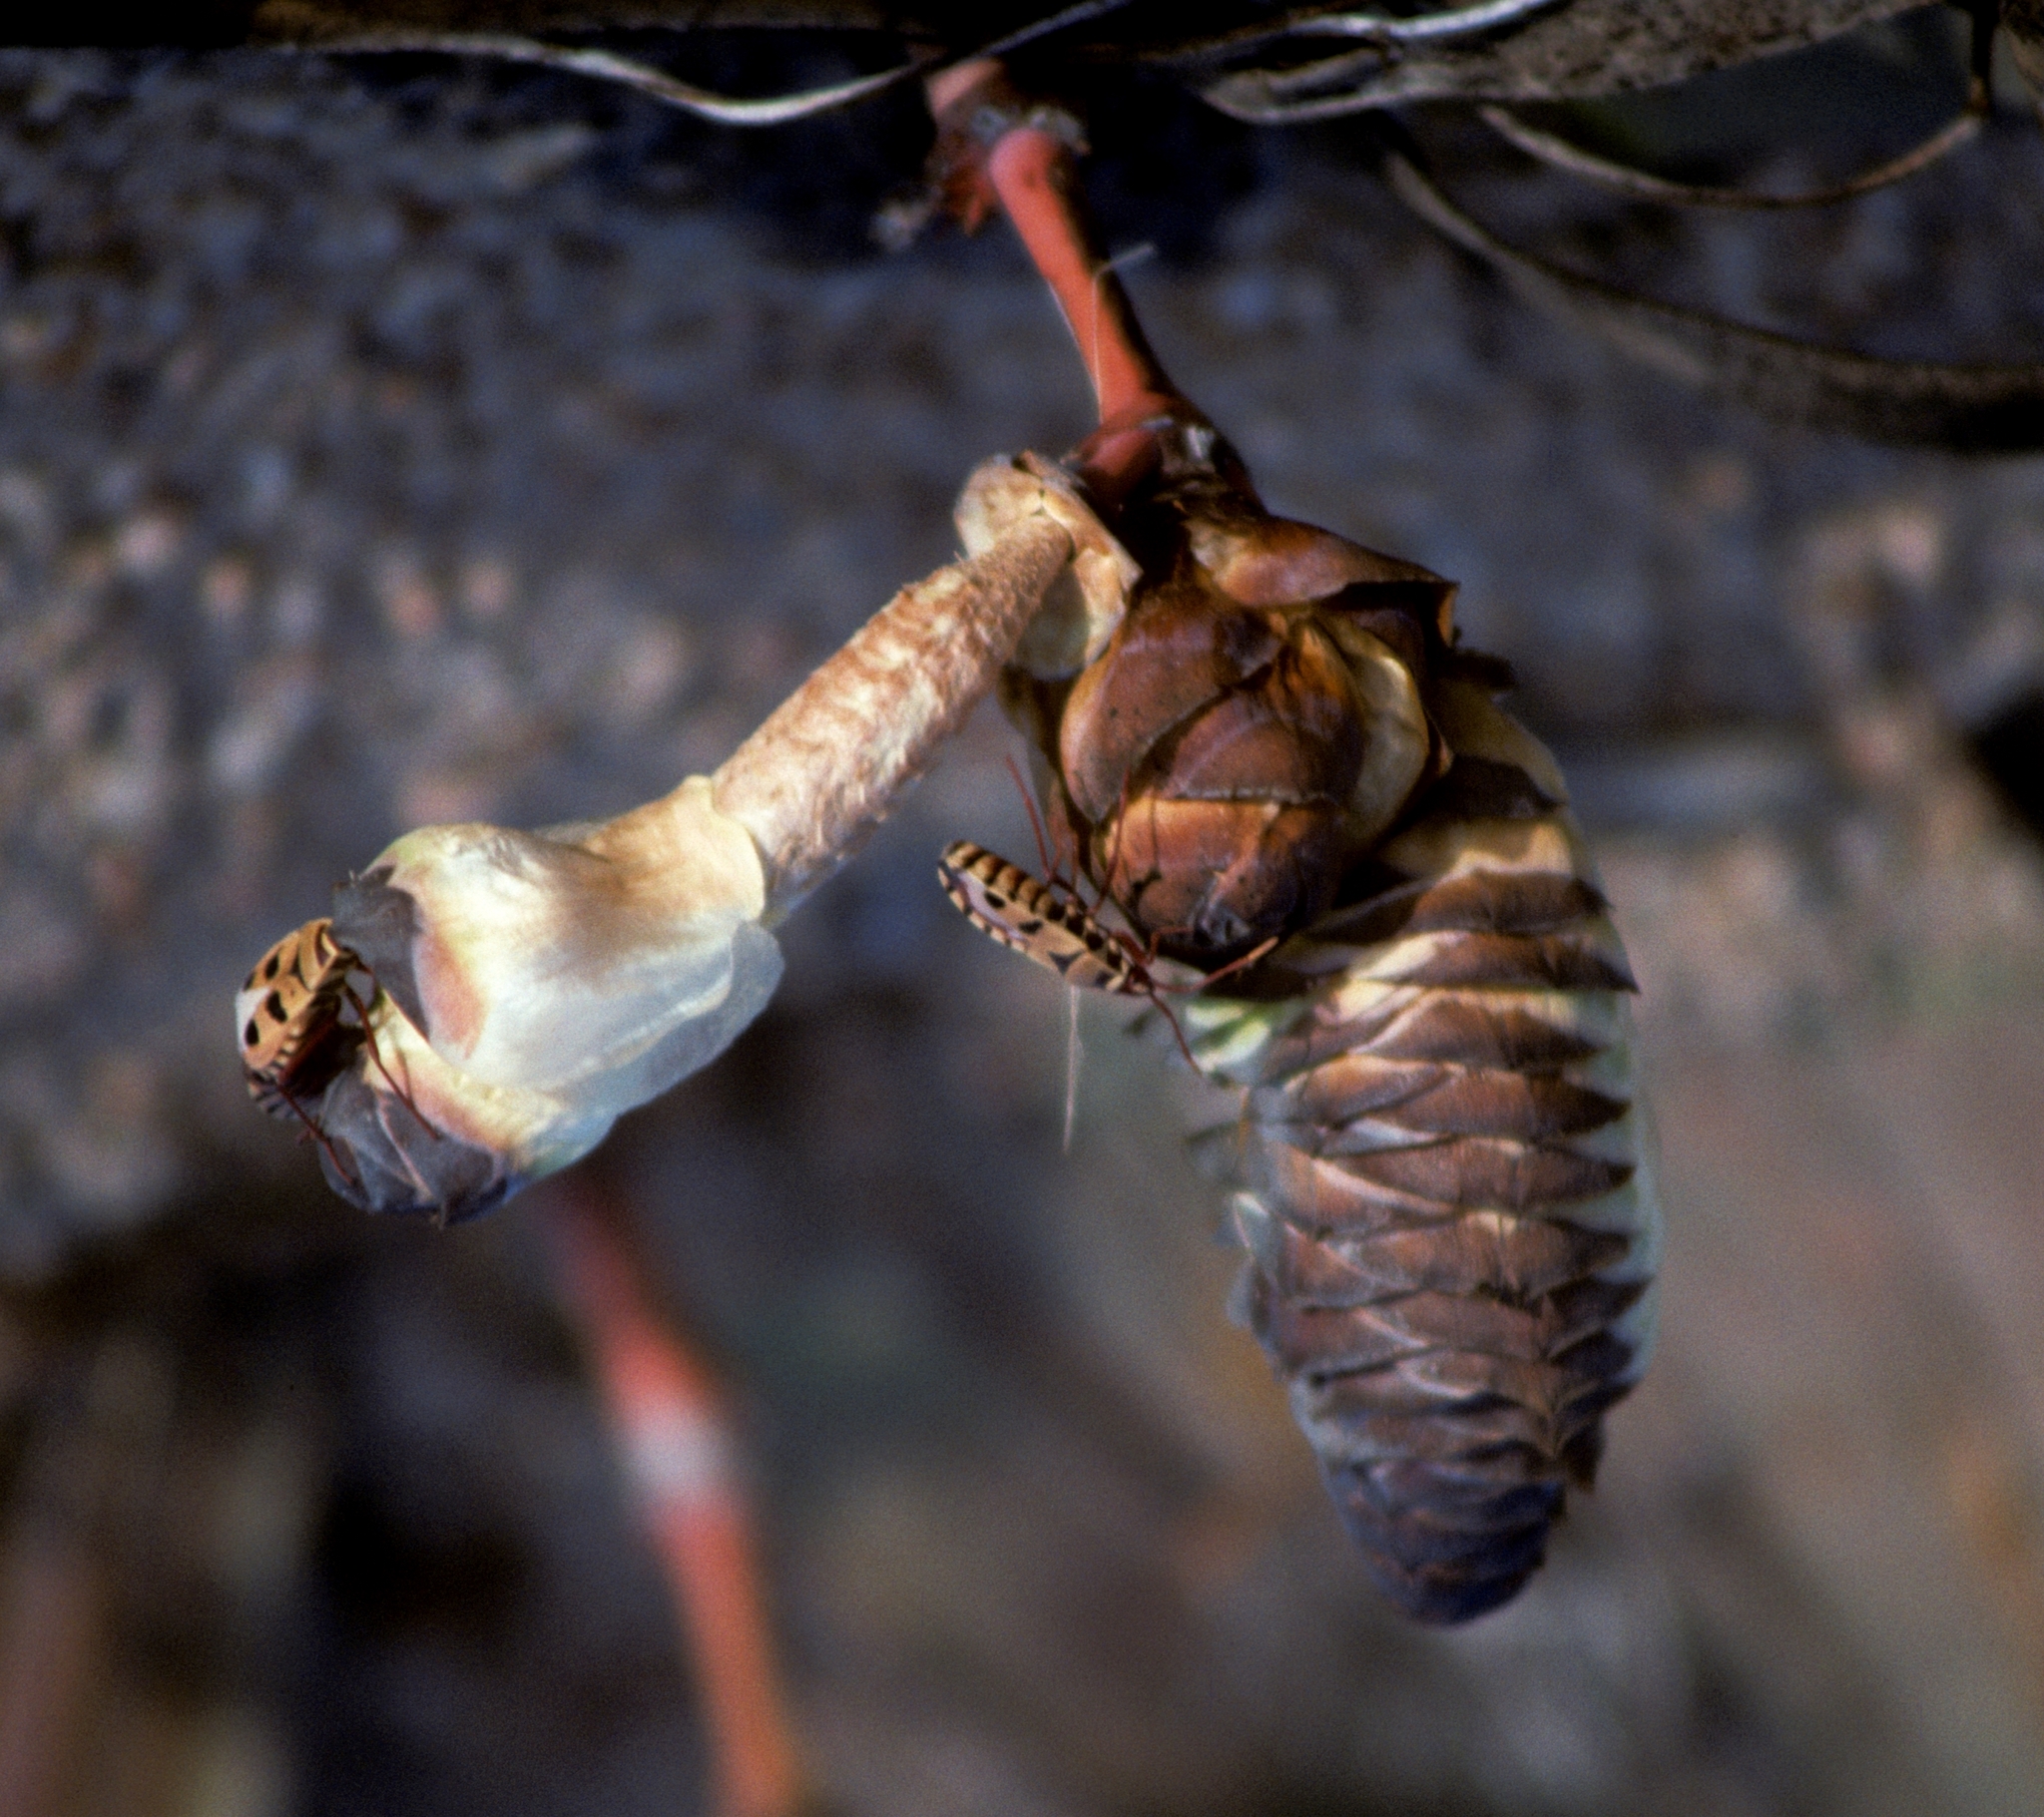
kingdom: Plantae
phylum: Tracheophyta
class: Gnetopsida
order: Welwitschiales
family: Welwitschiaceae
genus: Welwitschia
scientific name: Welwitschia mirabilis
